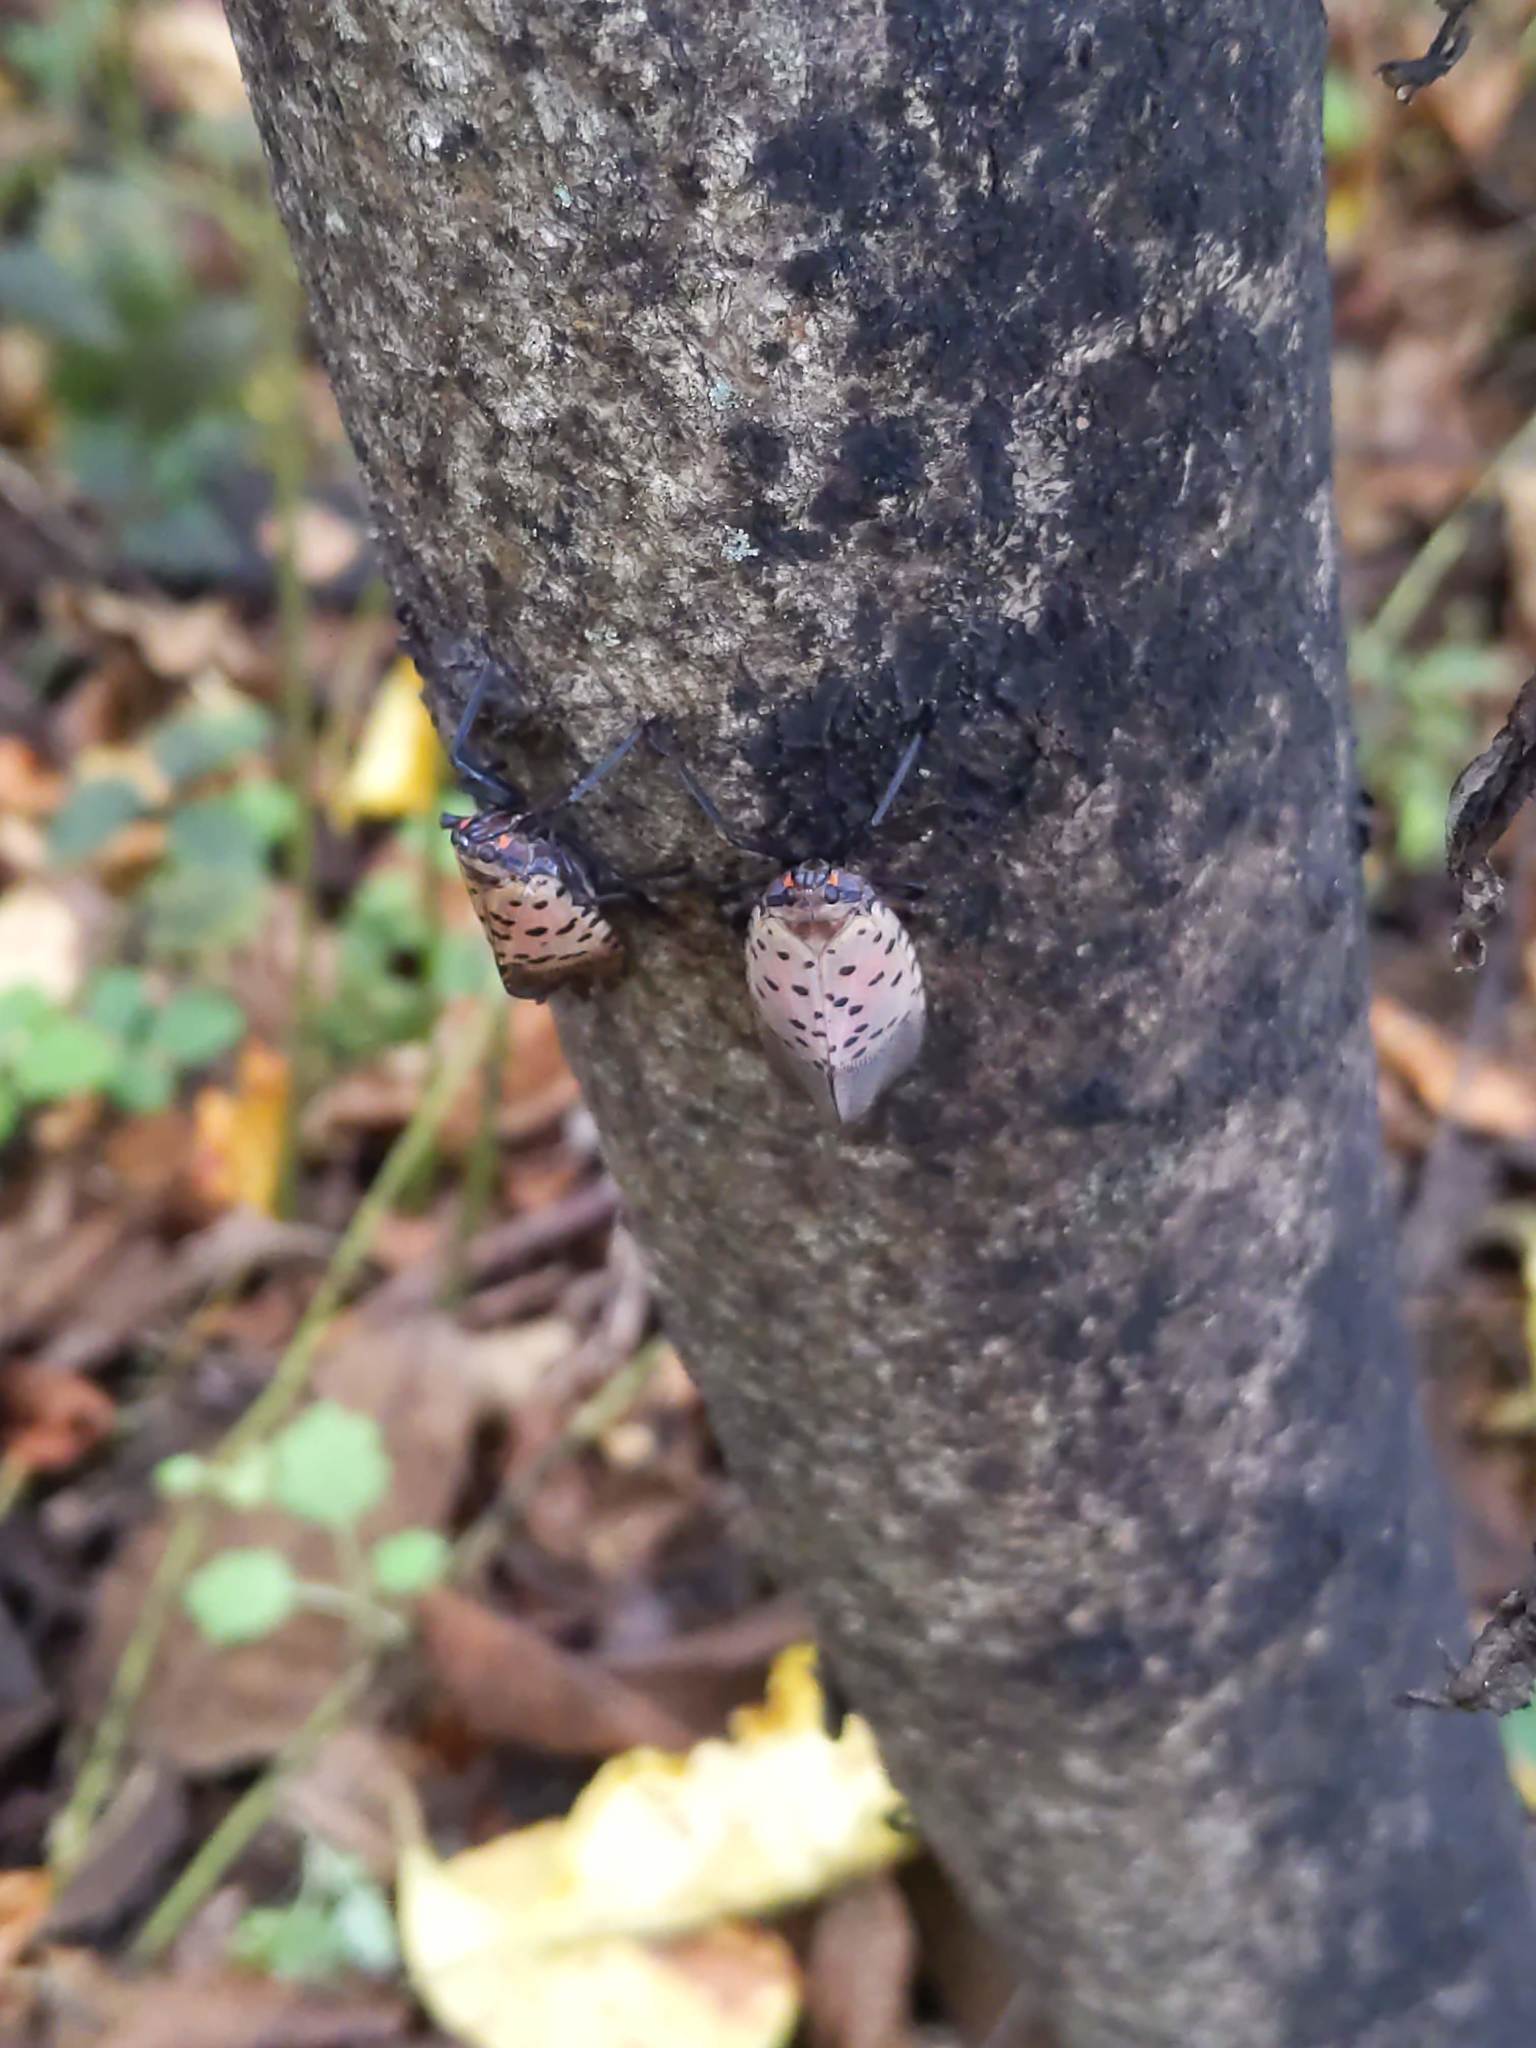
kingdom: Animalia
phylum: Arthropoda
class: Insecta
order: Hemiptera
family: Fulgoridae
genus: Lycorma
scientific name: Lycorma delicatula
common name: Spotted lanternfly
